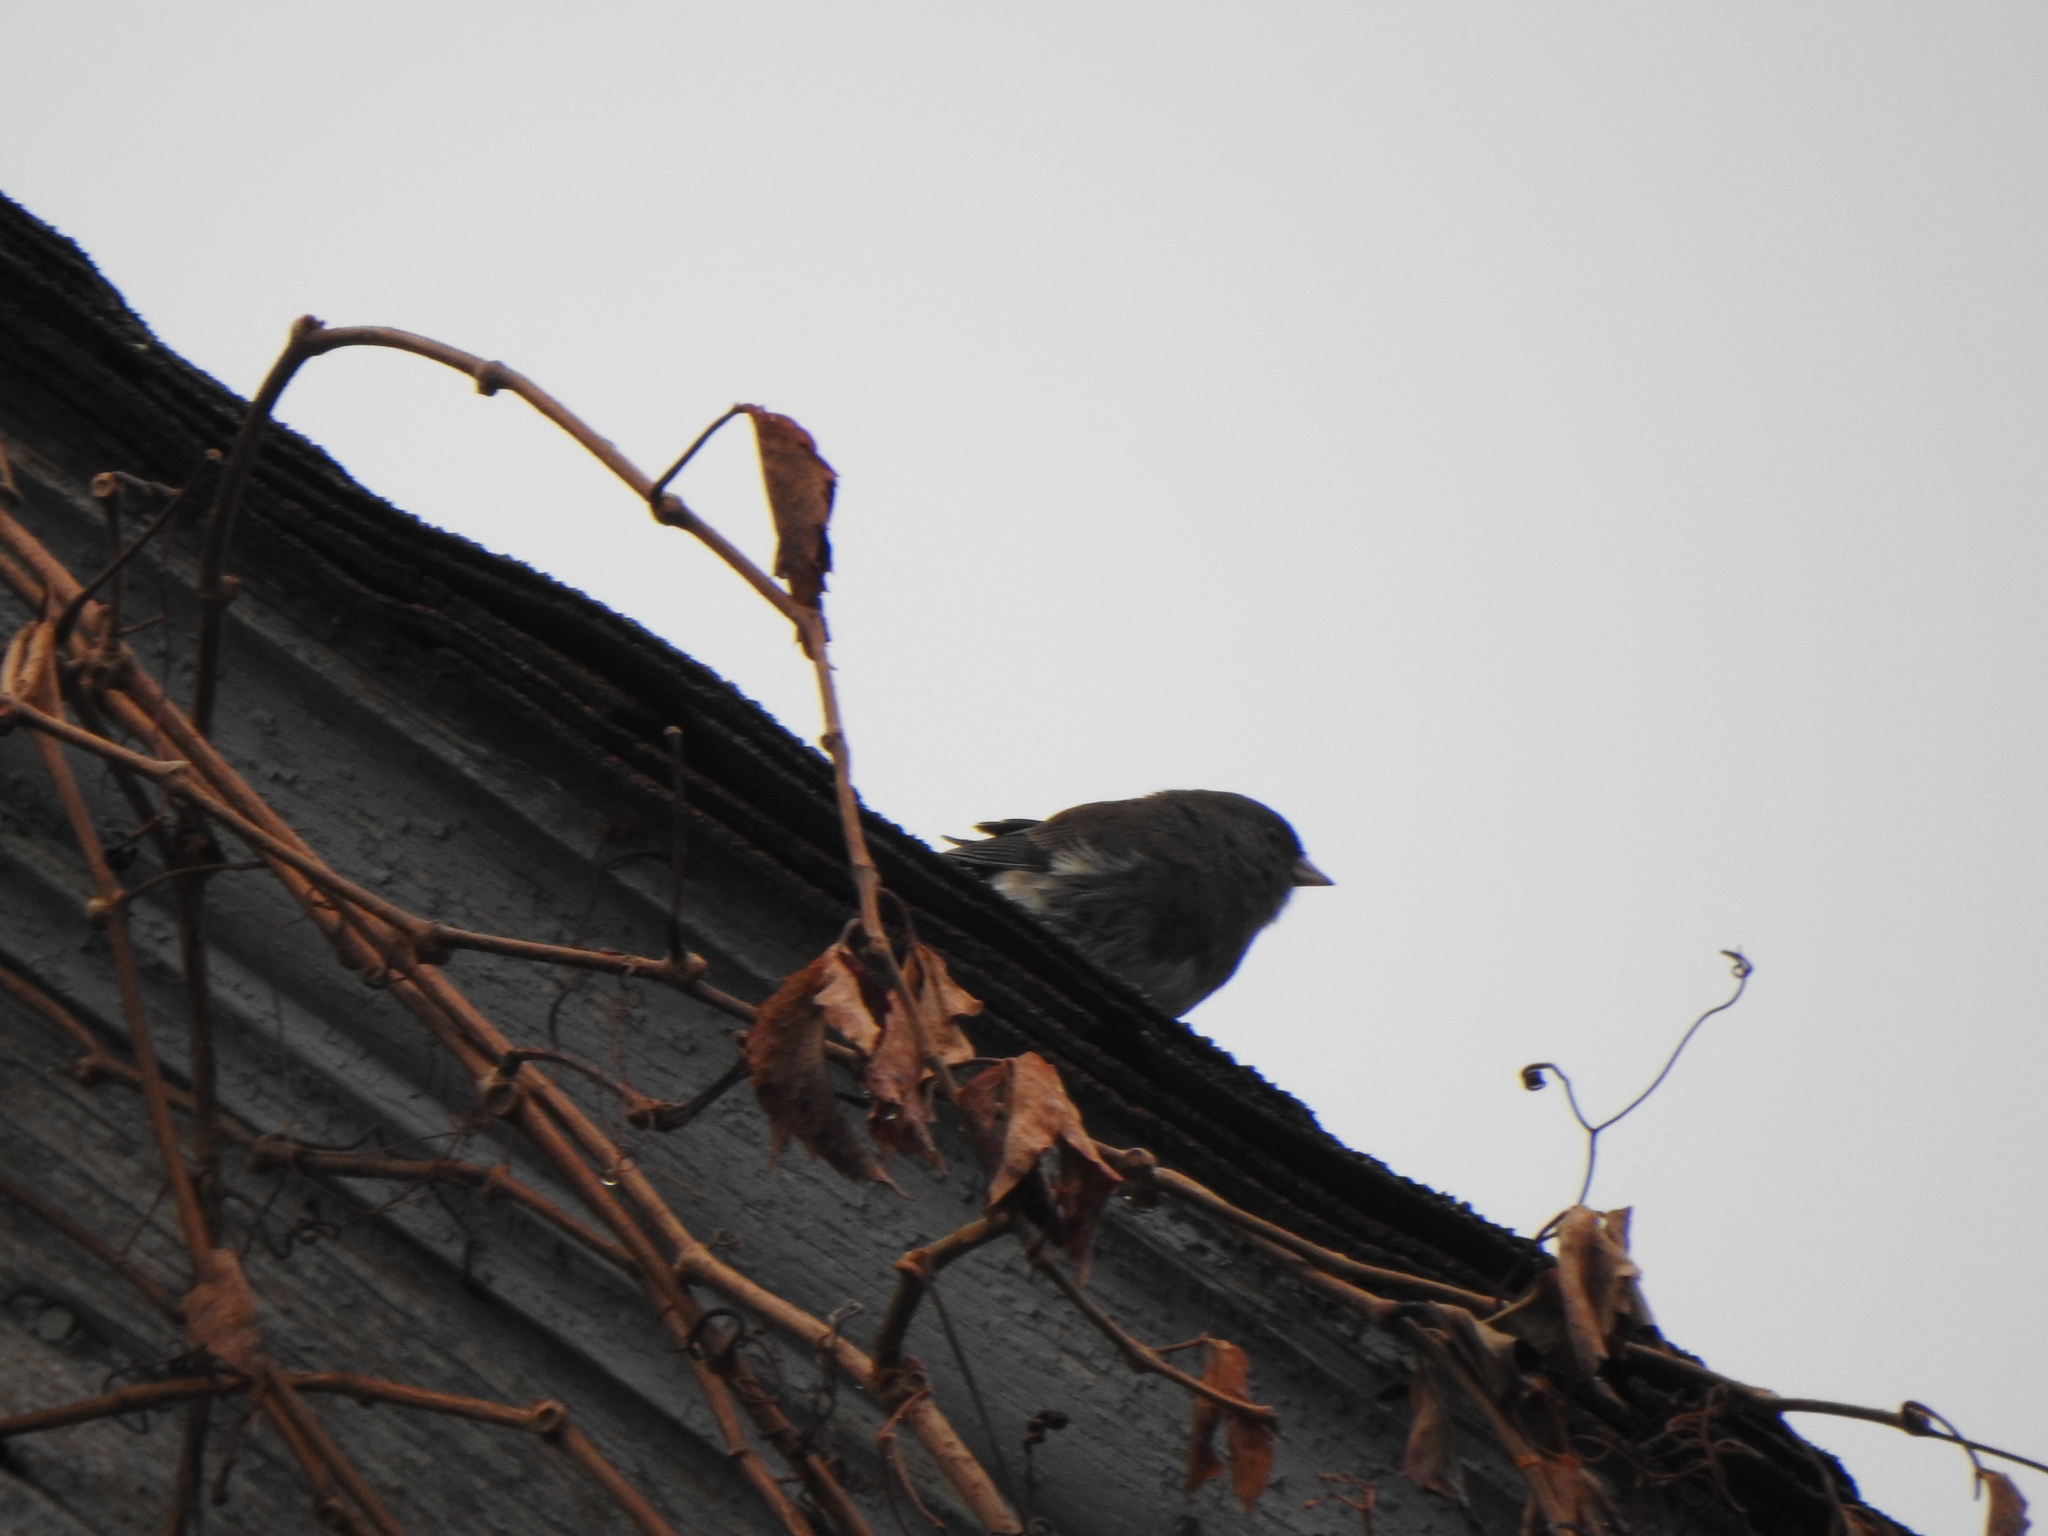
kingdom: Animalia
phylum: Chordata
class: Aves
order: Passeriformes
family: Passerellidae
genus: Junco
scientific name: Junco hyemalis
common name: Dark-eyed junco
